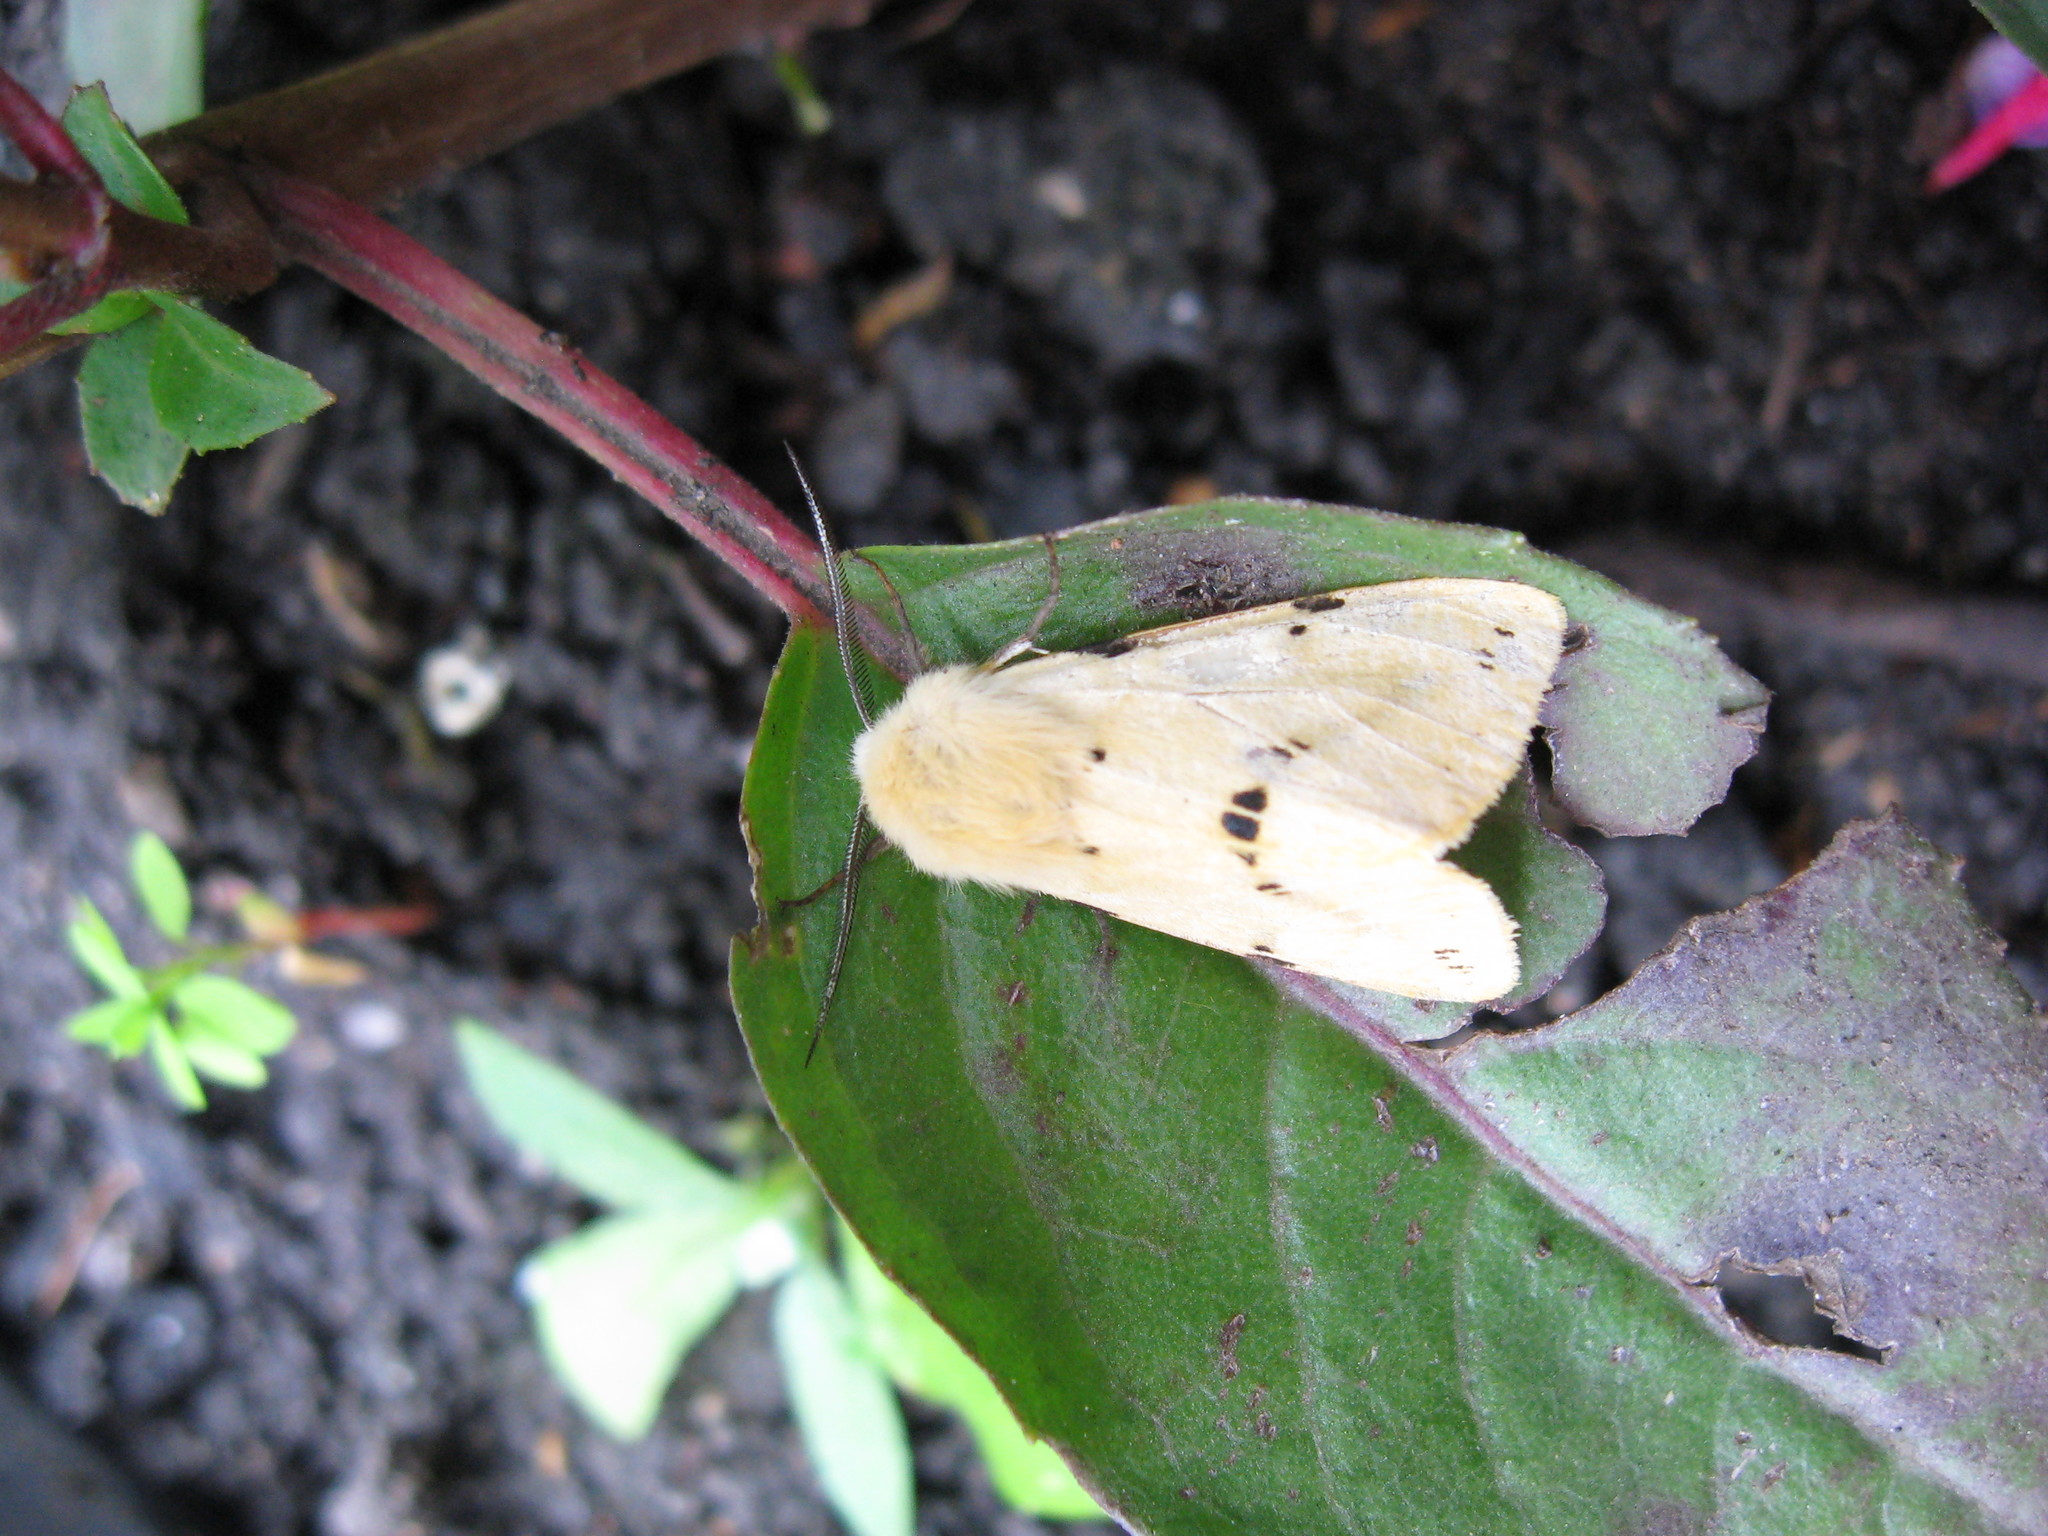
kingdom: Animalia
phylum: Arthropoda
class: Insecta
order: Lepidoptera
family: Erebidae
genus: Spilarctia
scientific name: Spilarctia lutea
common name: Buff ermine
